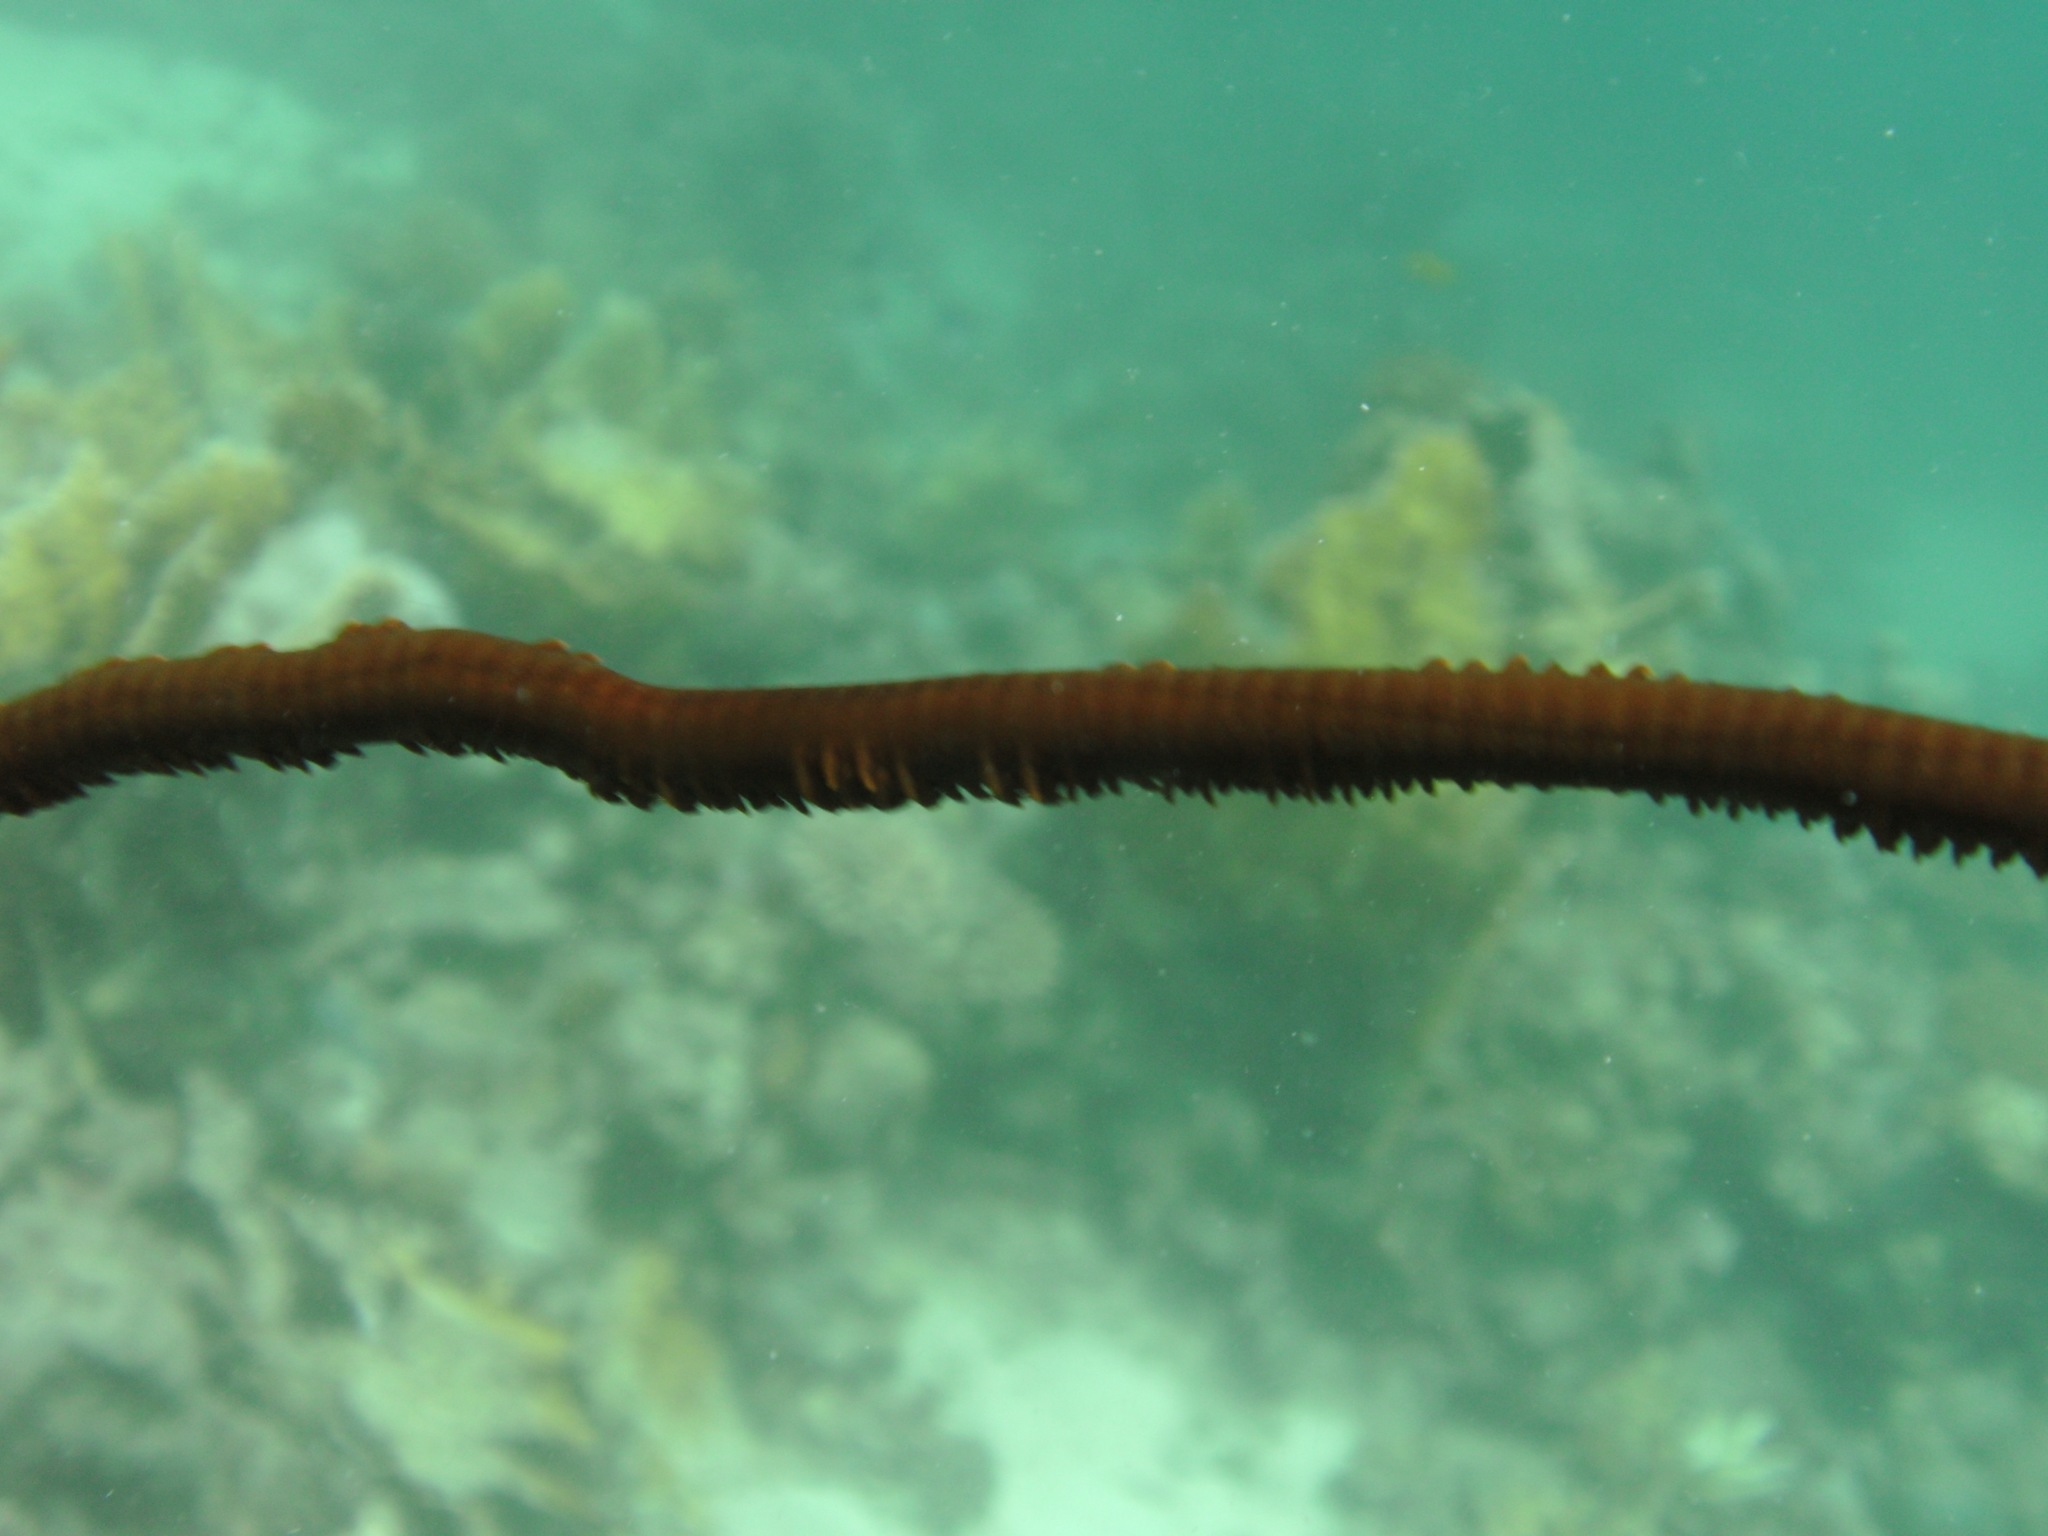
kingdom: Animalia
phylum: Cnidaria
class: Anthozoa
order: Antipatharia
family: Antipathidae
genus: Stichopathes
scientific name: Stichopathes maldivensis
